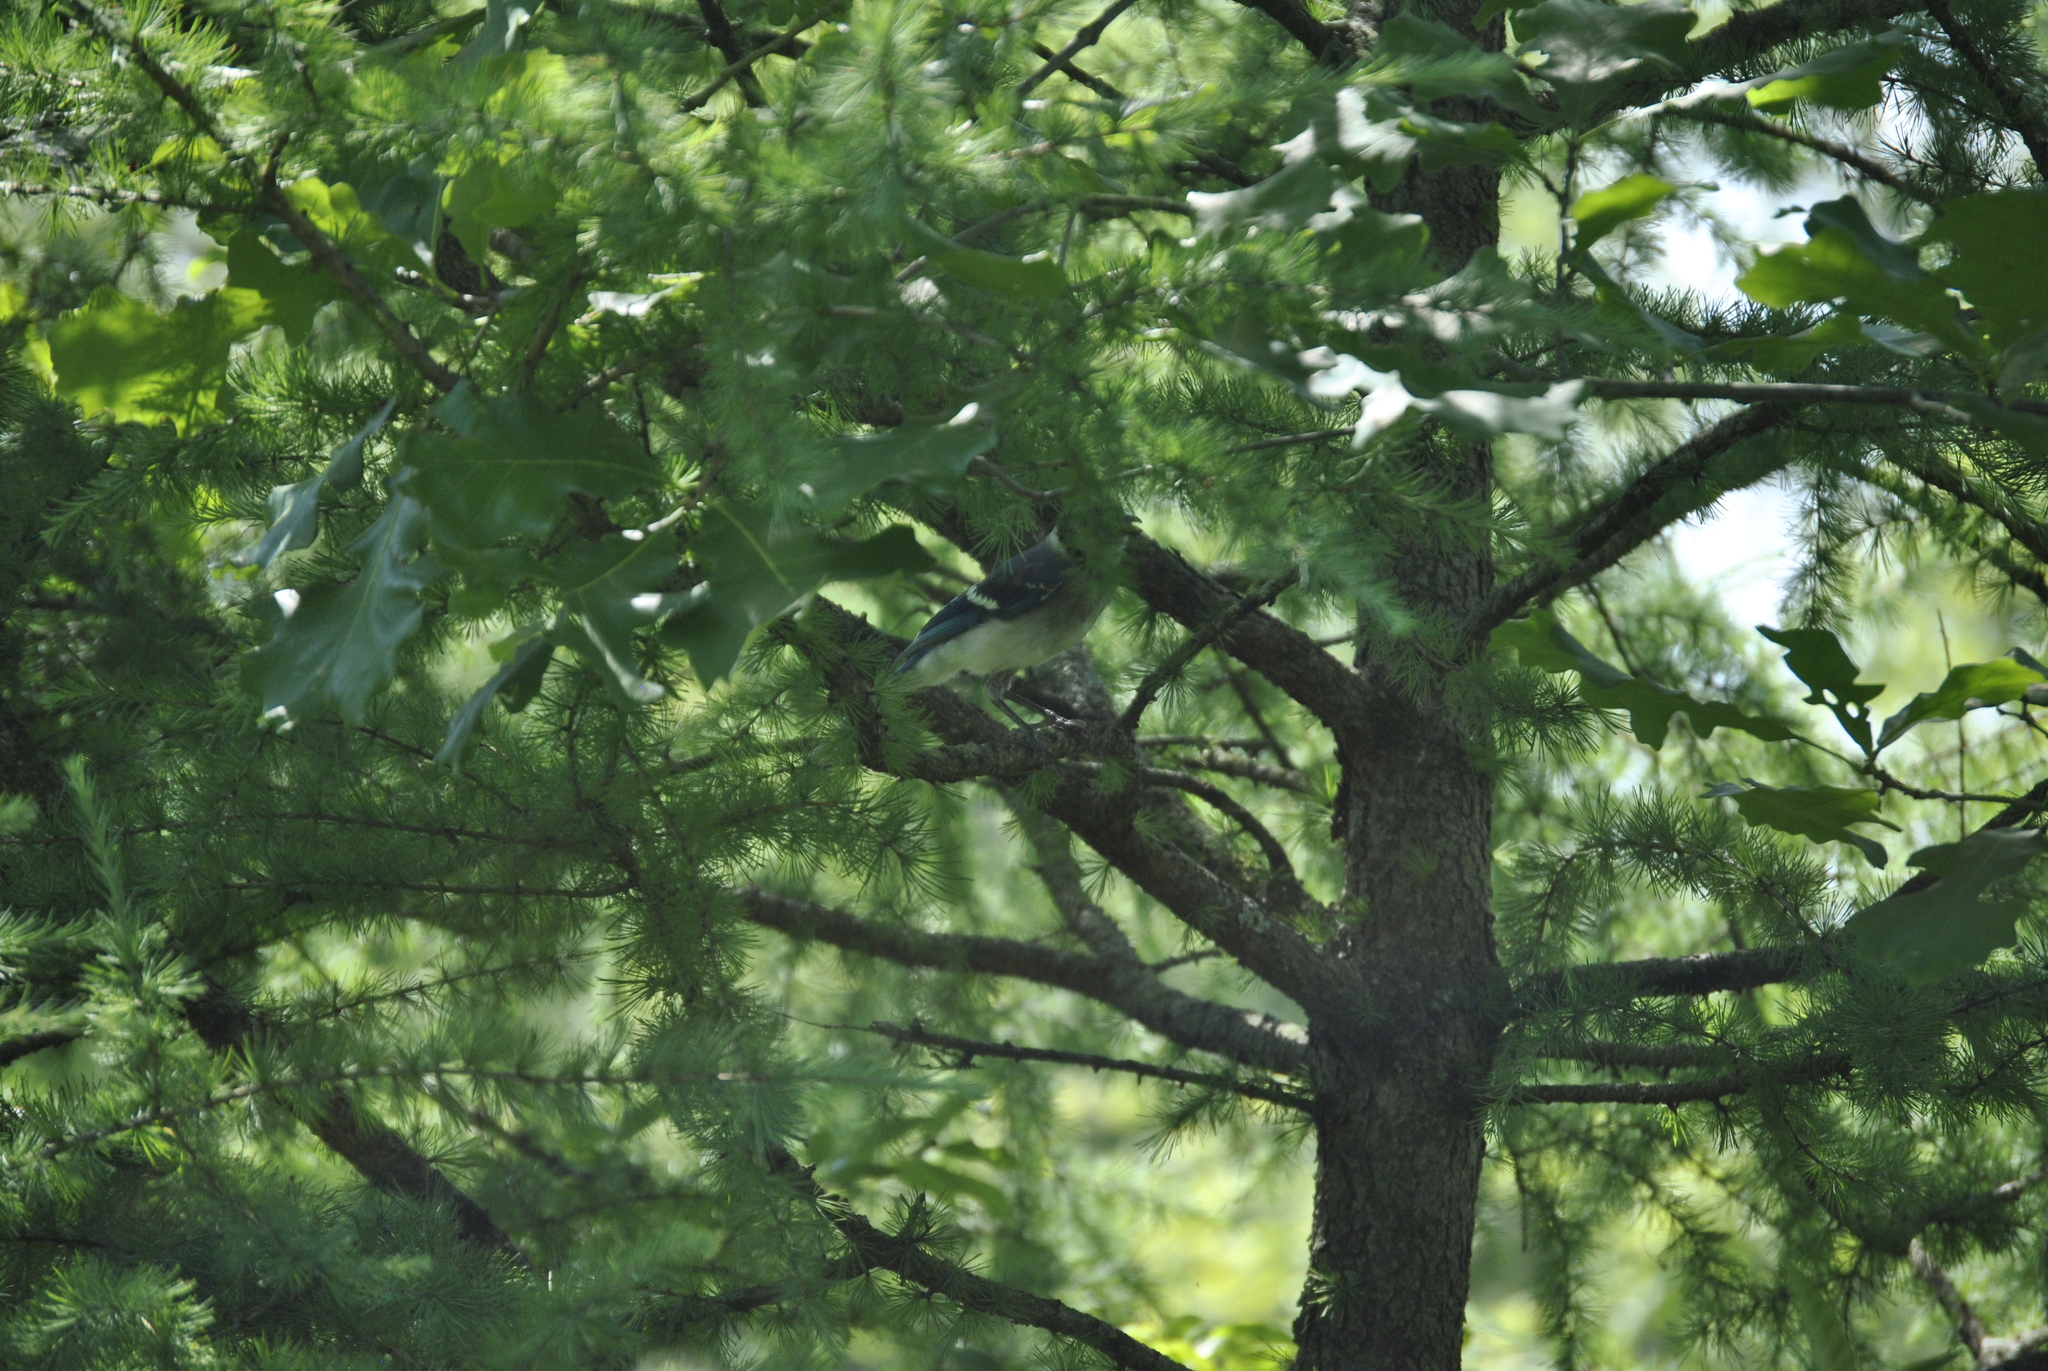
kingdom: Animalia
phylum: Chordata
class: Aves
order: Passeriformes
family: Corvidae
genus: Cyanocitta
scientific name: Cyanocitta cristata
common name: Blue jay
